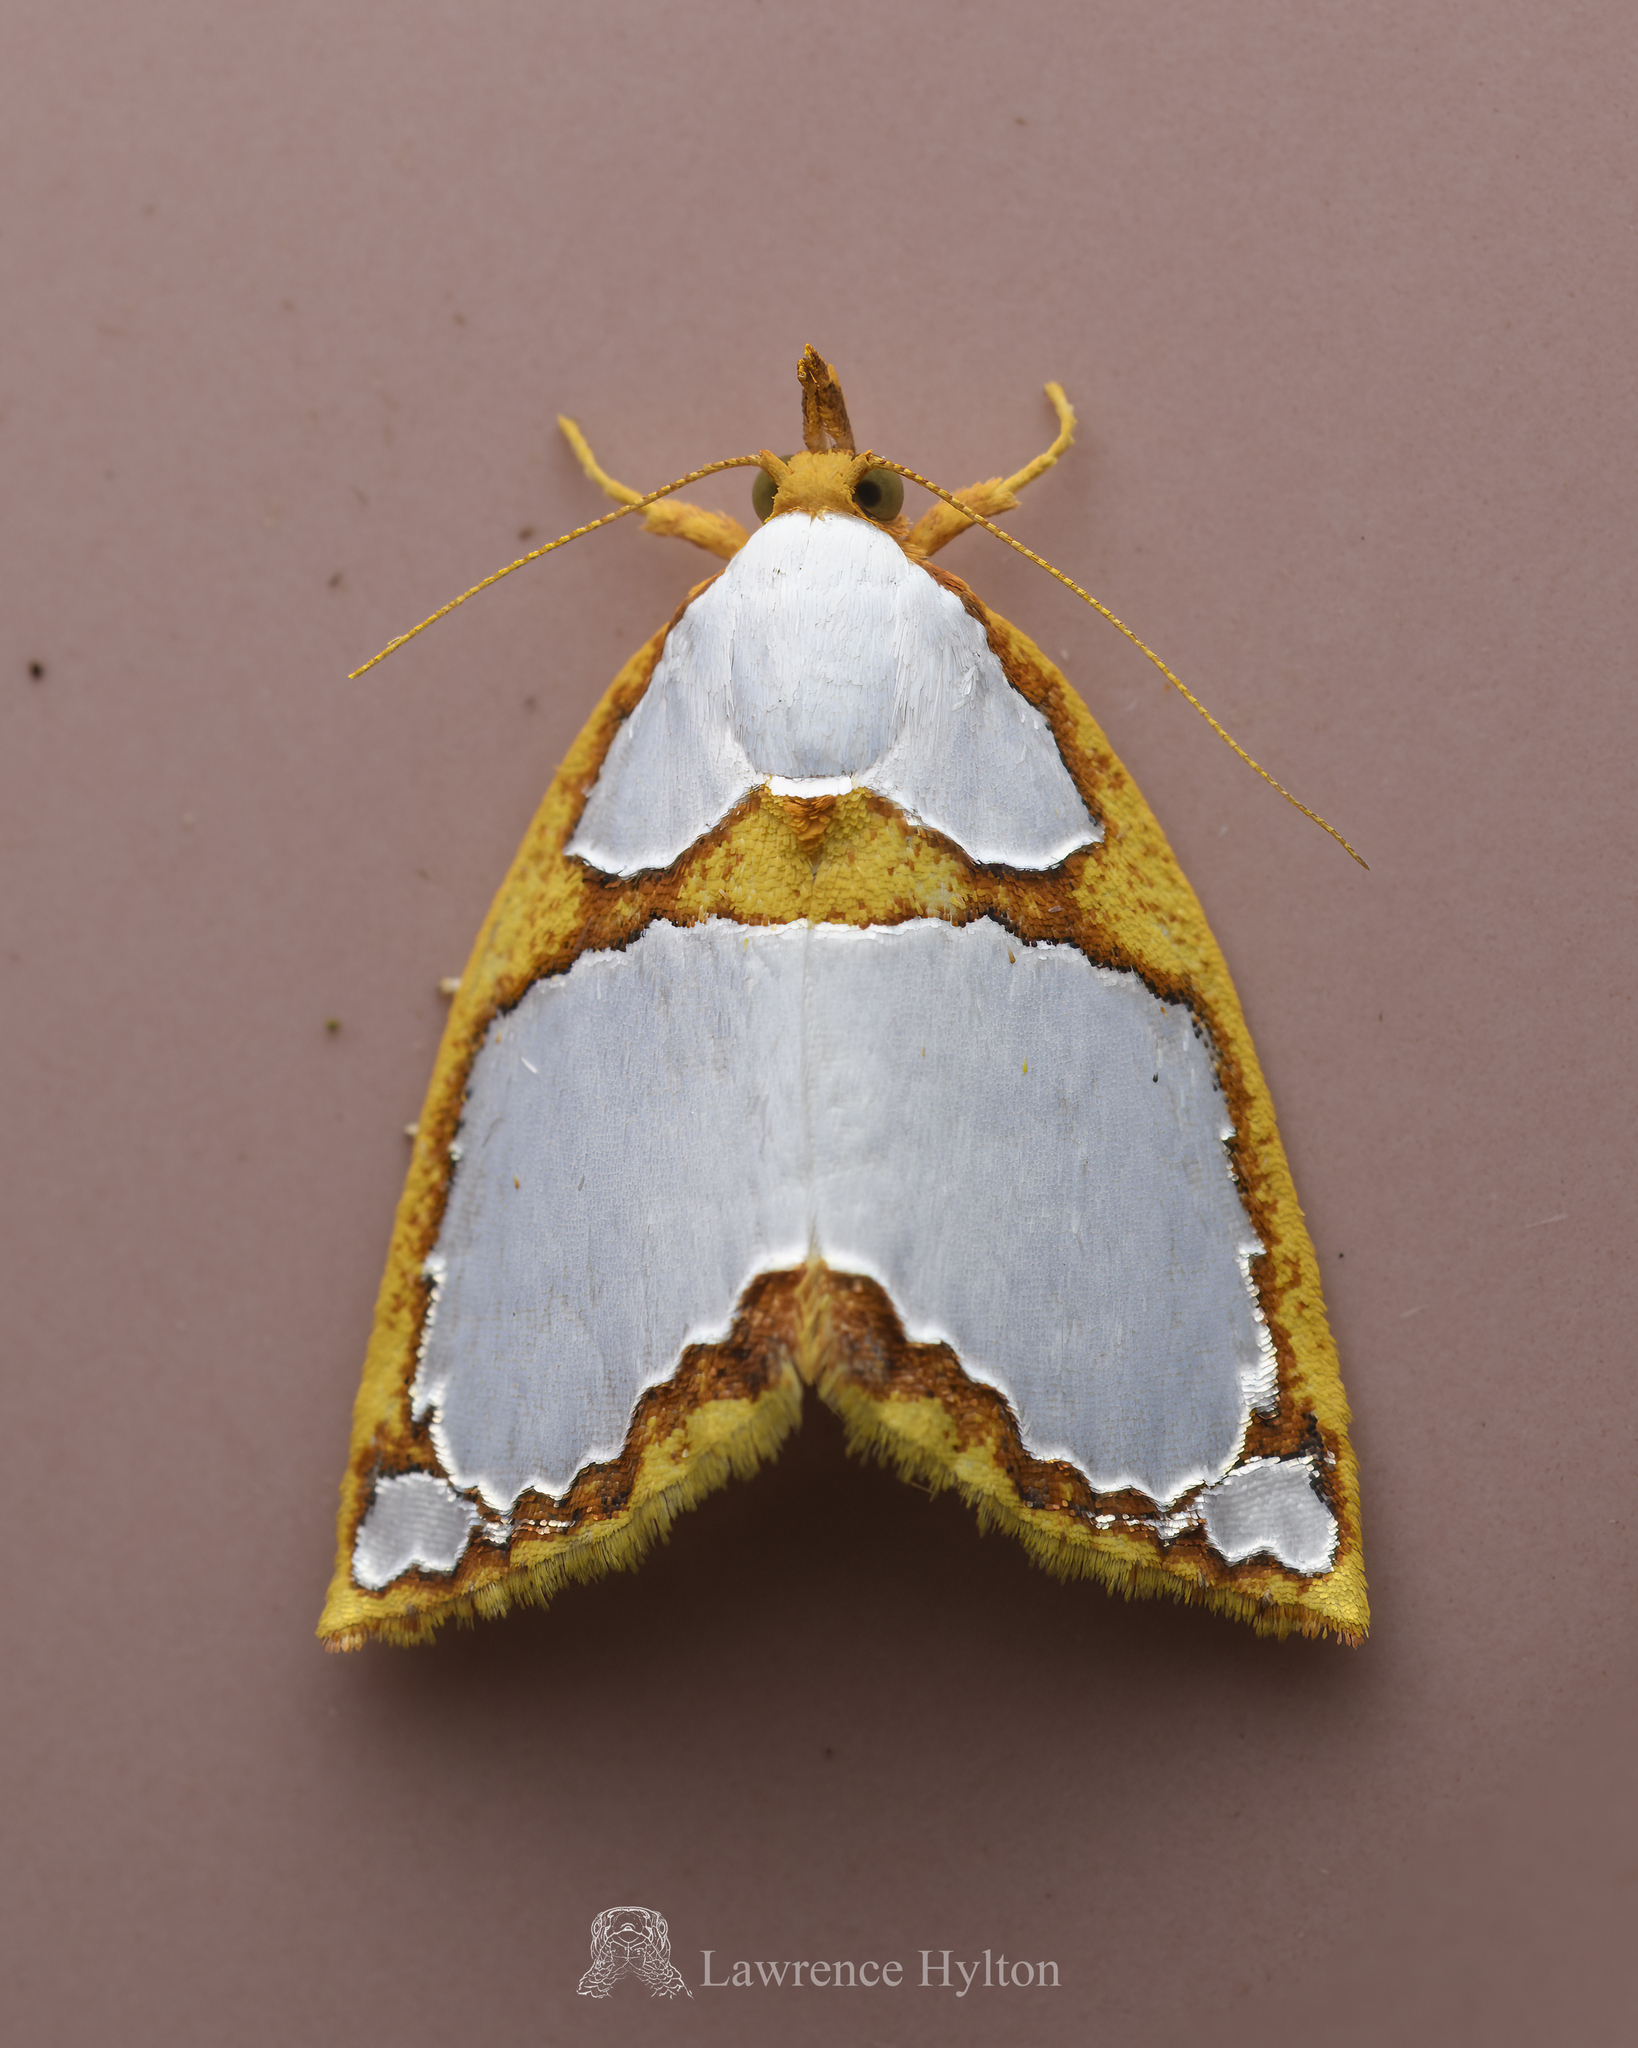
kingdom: Animalia
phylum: Arthropoda
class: Insecta
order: Lepidoptera
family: Nolidae
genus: Titulcia
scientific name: Titulcia confictella
